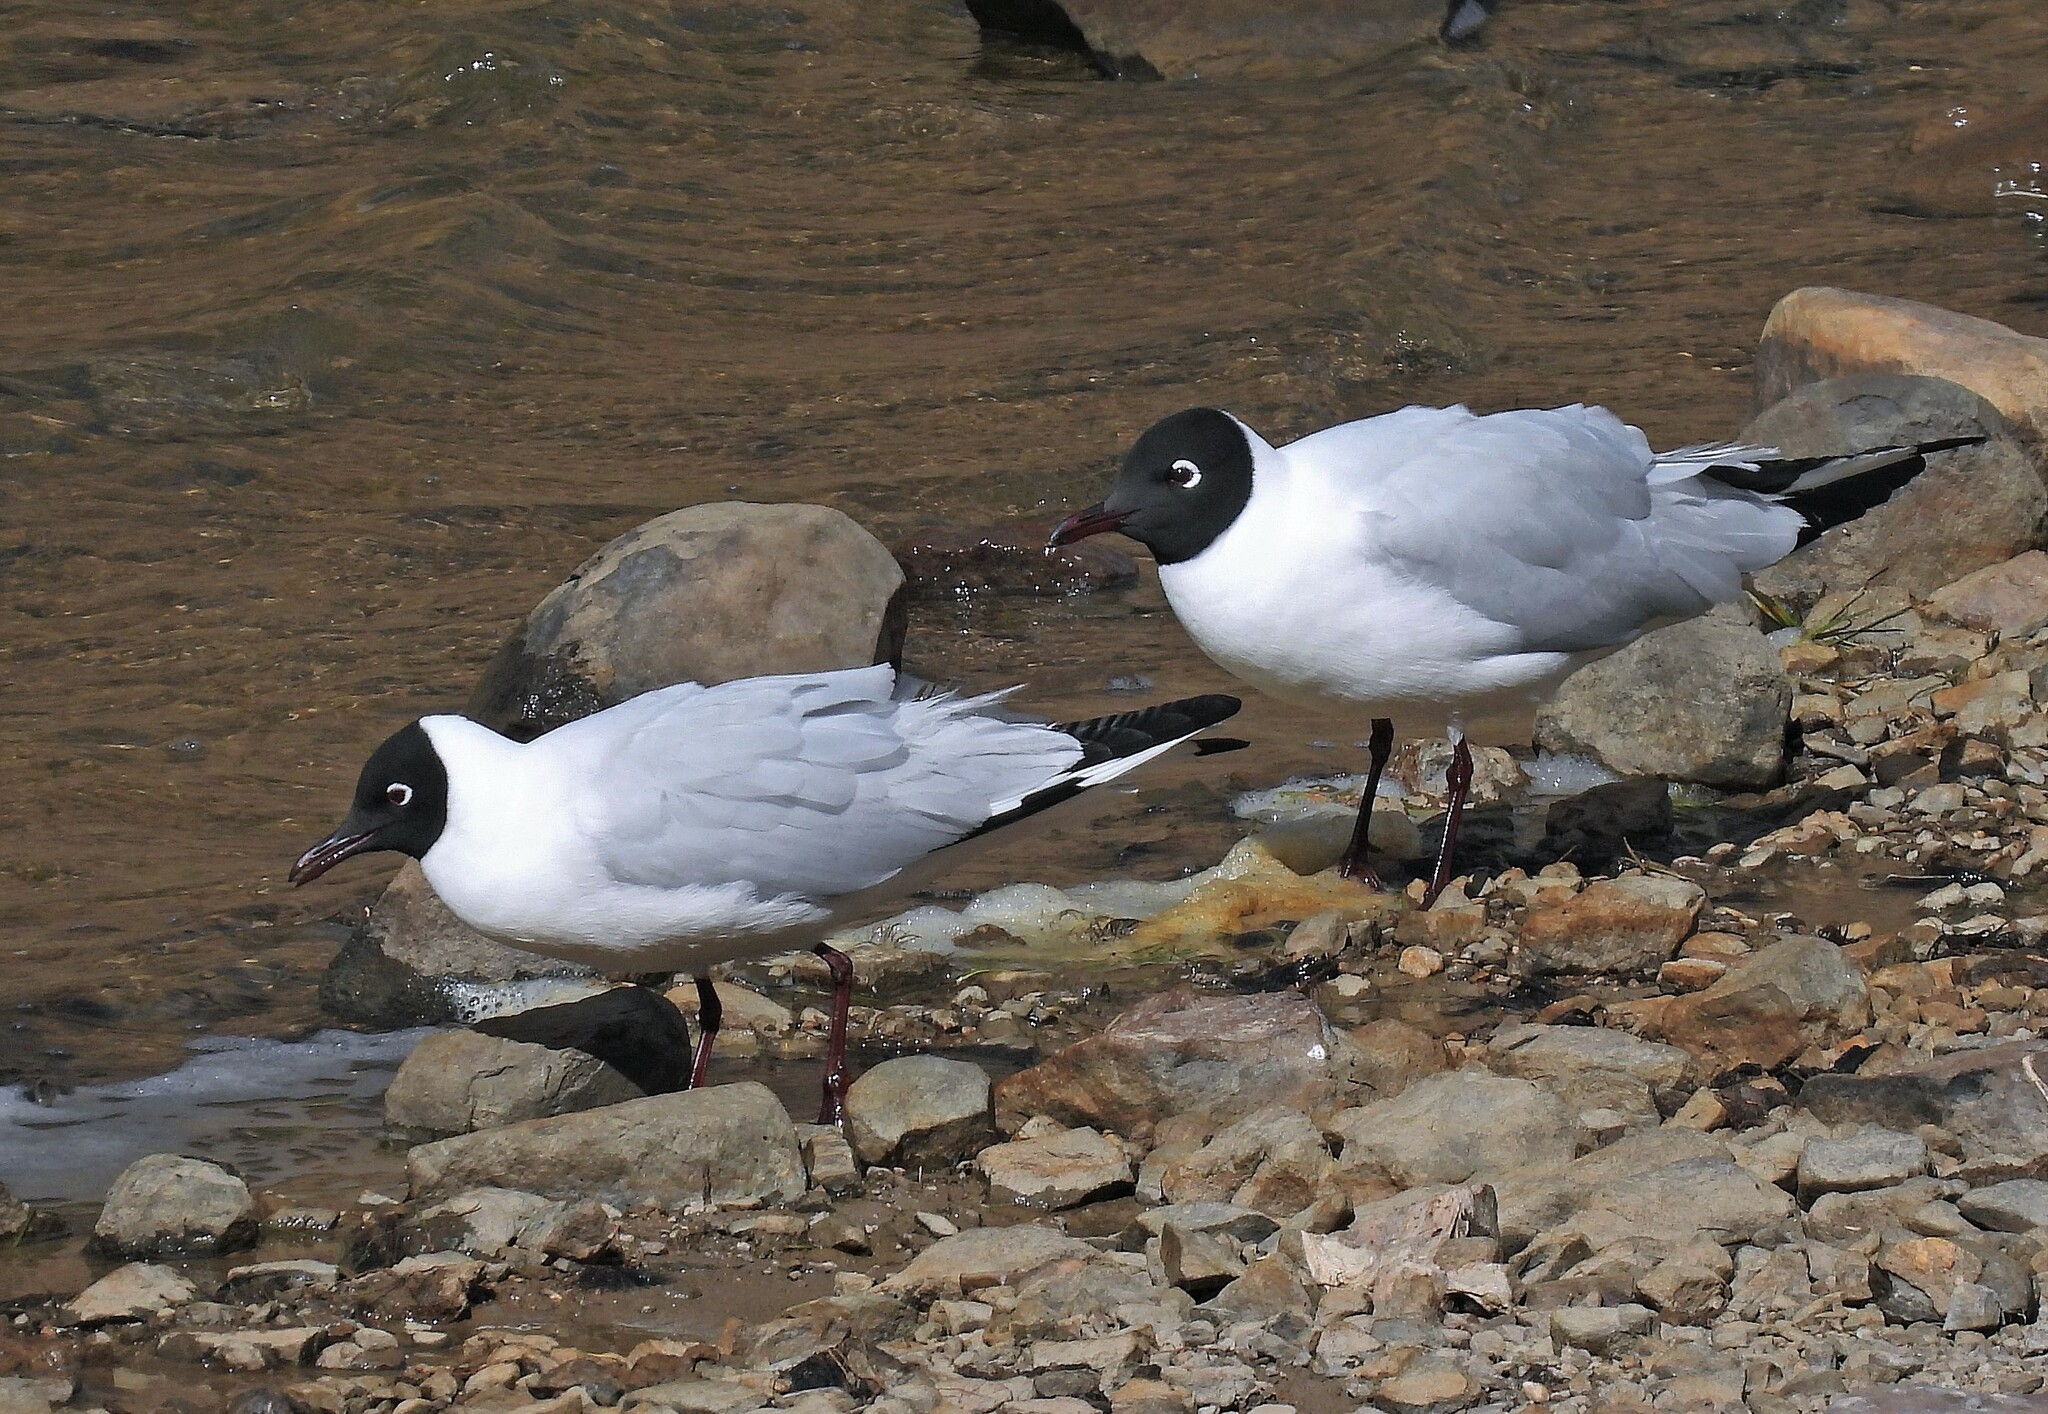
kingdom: Animalia
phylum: Chordata
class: Aves
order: Charadriiformes
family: Laridae
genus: Chroicocephalus
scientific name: Chroicocephalus serranus
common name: Andean gull
